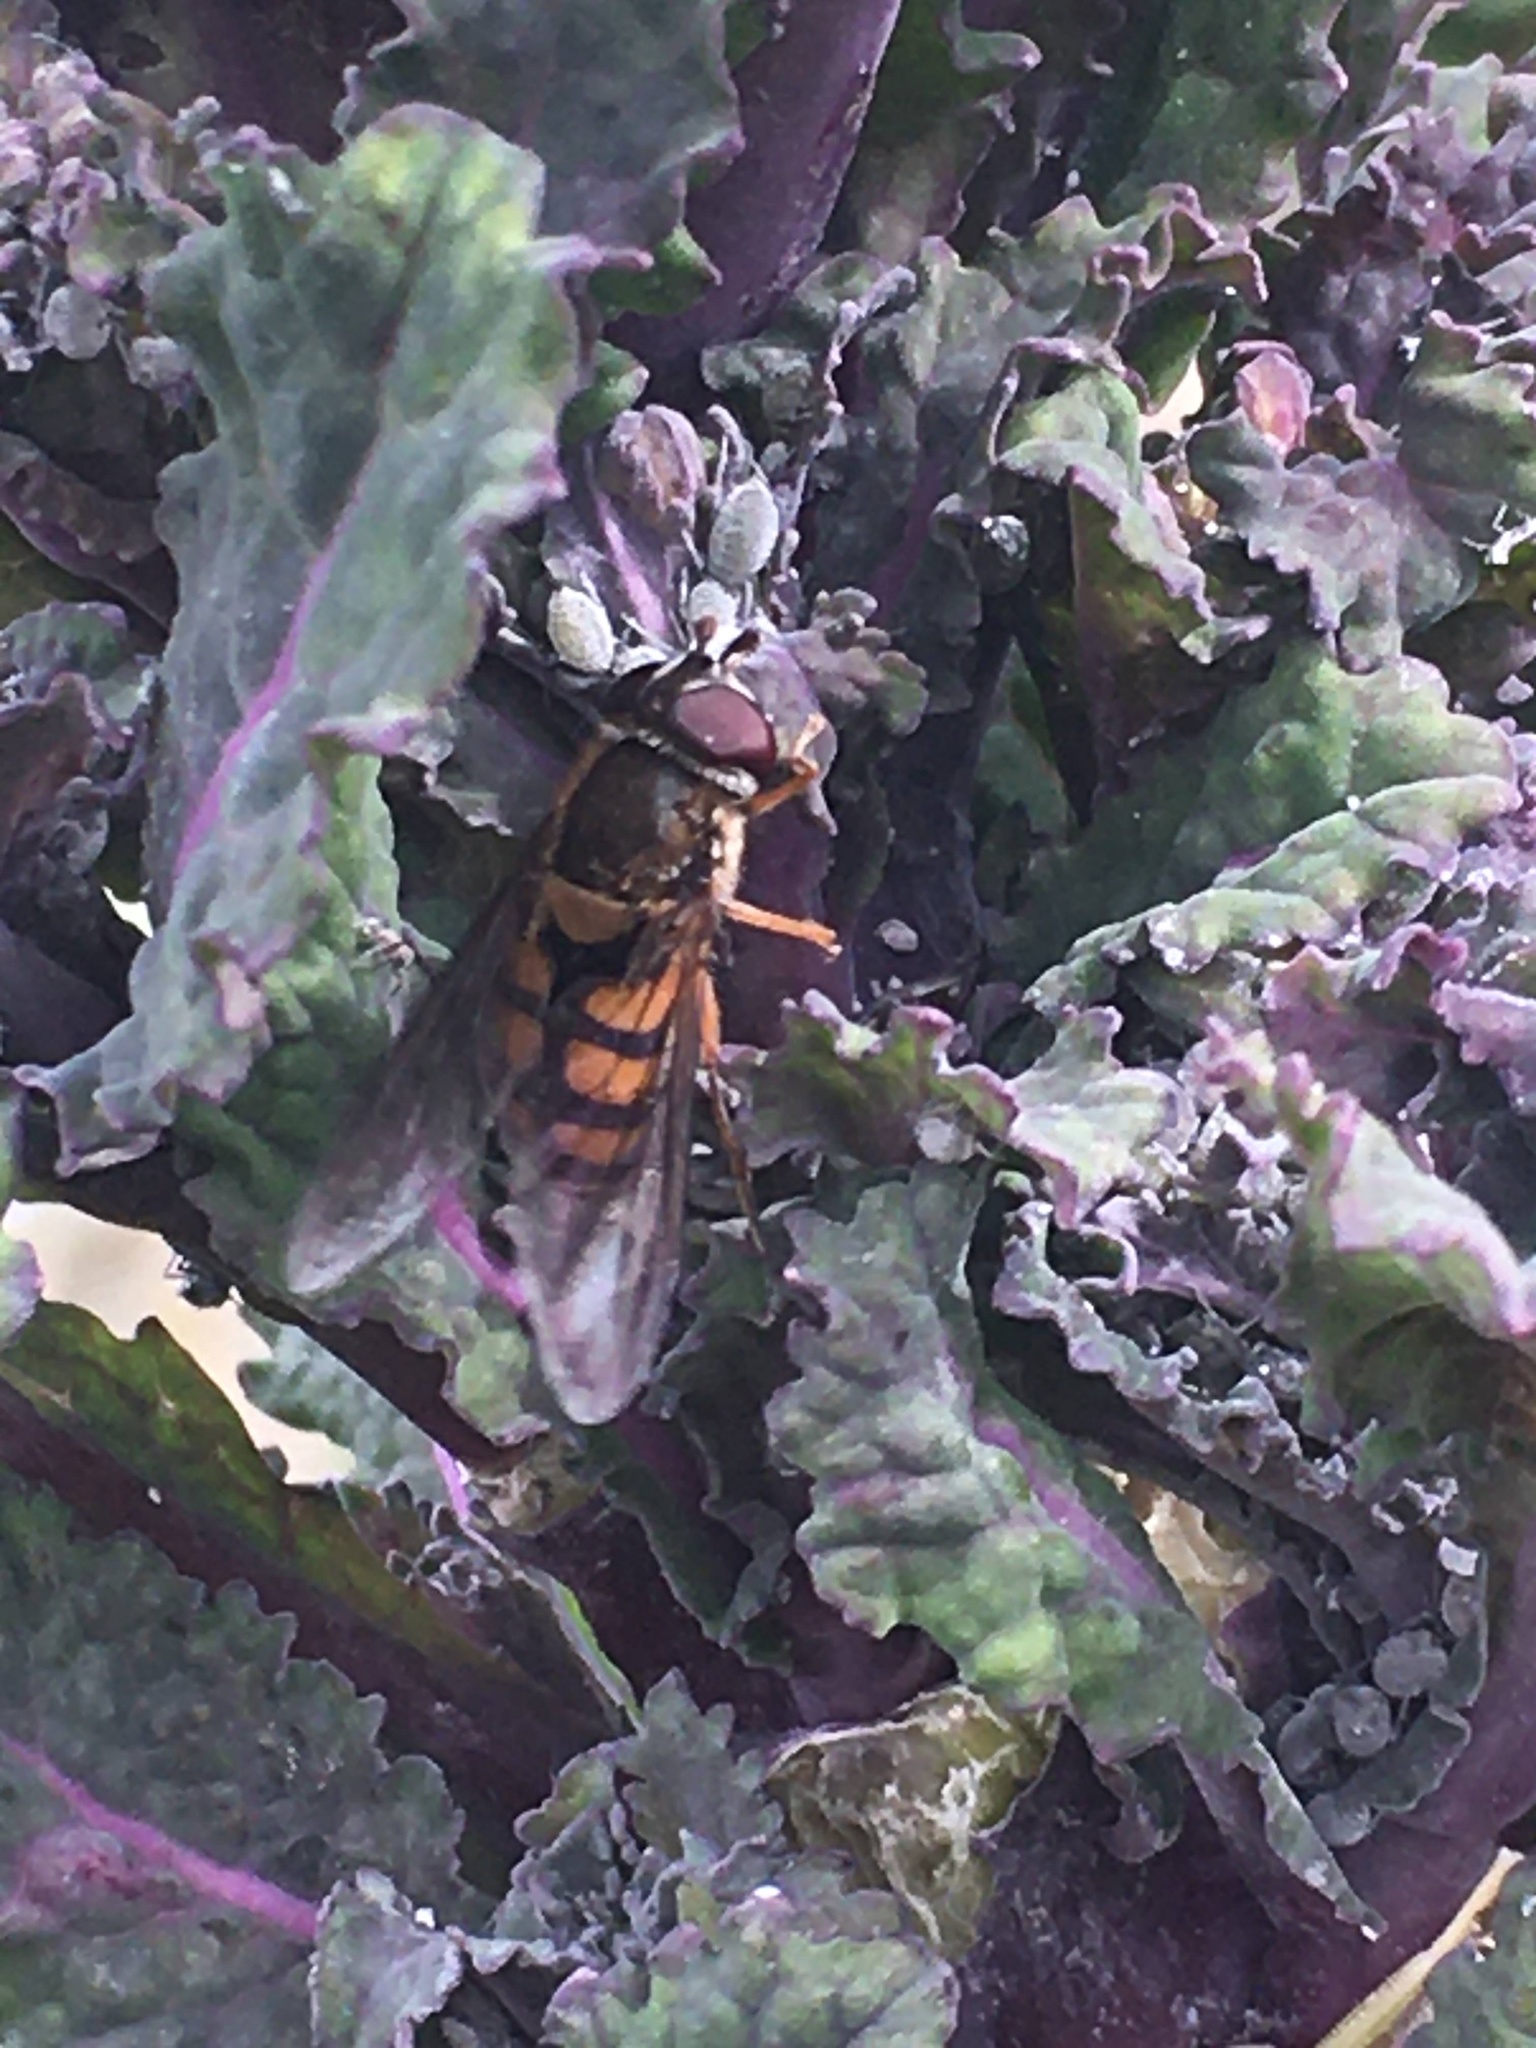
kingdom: Animalia
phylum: Arthropoda
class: Insecta
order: Diptera
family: Syrphidae
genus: Syrphus
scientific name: Syrphus octomaculatus
